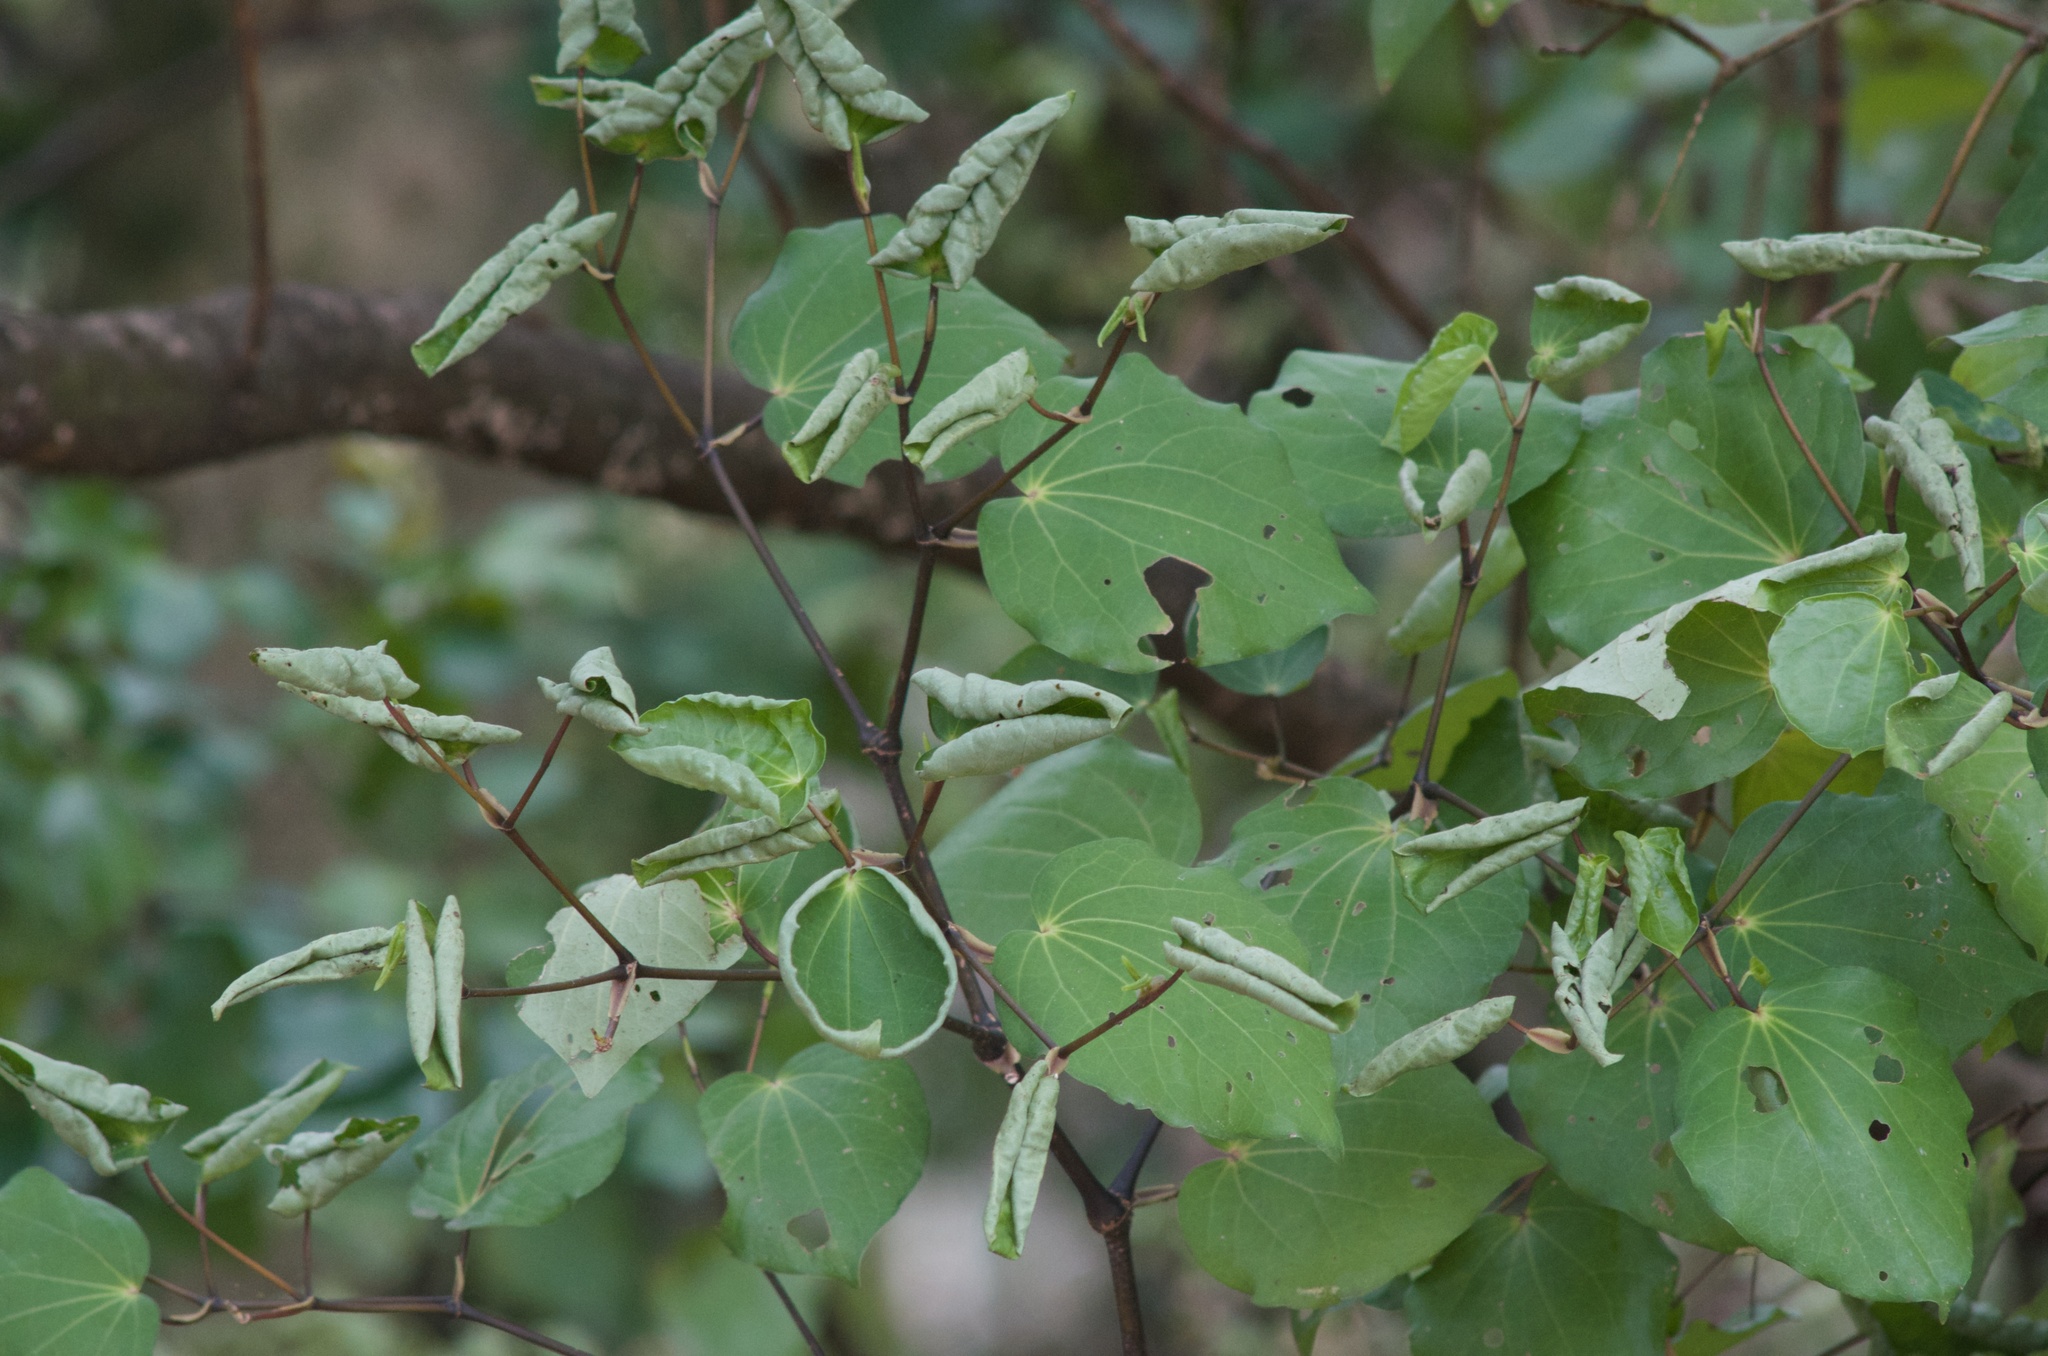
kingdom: Plantae
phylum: Tracheophyta
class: Magnoliopsida
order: Piperales
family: Piperaceae
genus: Macropiper
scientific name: Macropiper excelsum
